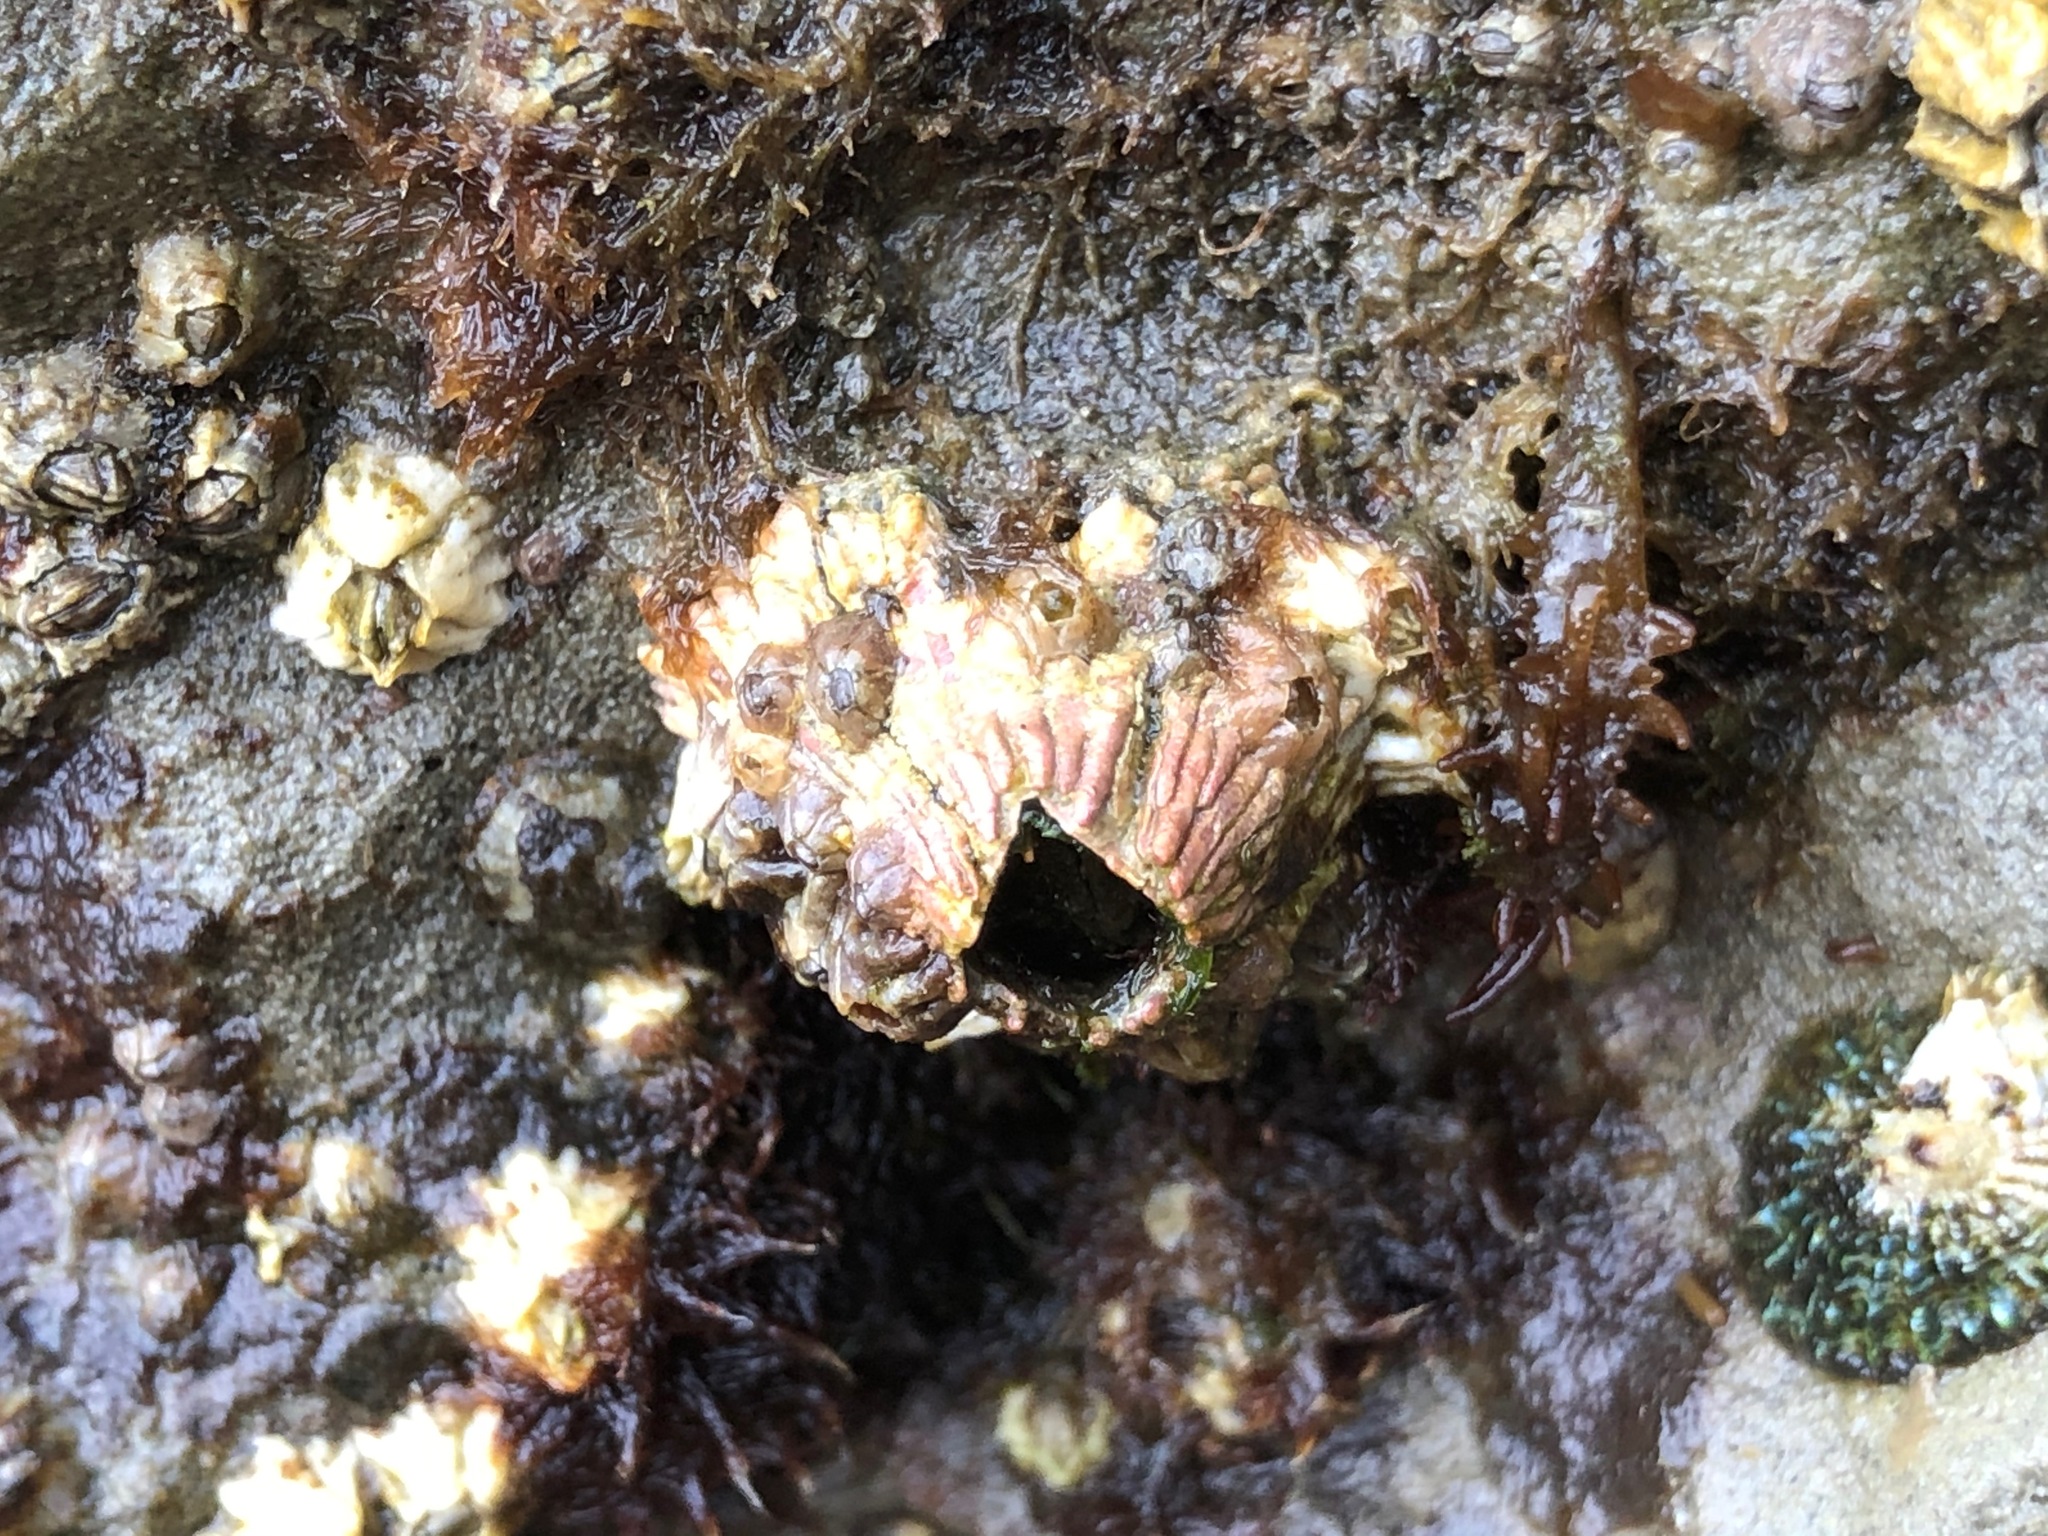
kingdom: Animalia
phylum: Arthropoda
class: Maxillopoda
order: Sessilia
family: Tetraclitidae
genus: Tetraclita
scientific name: Tetraclita rubescens
